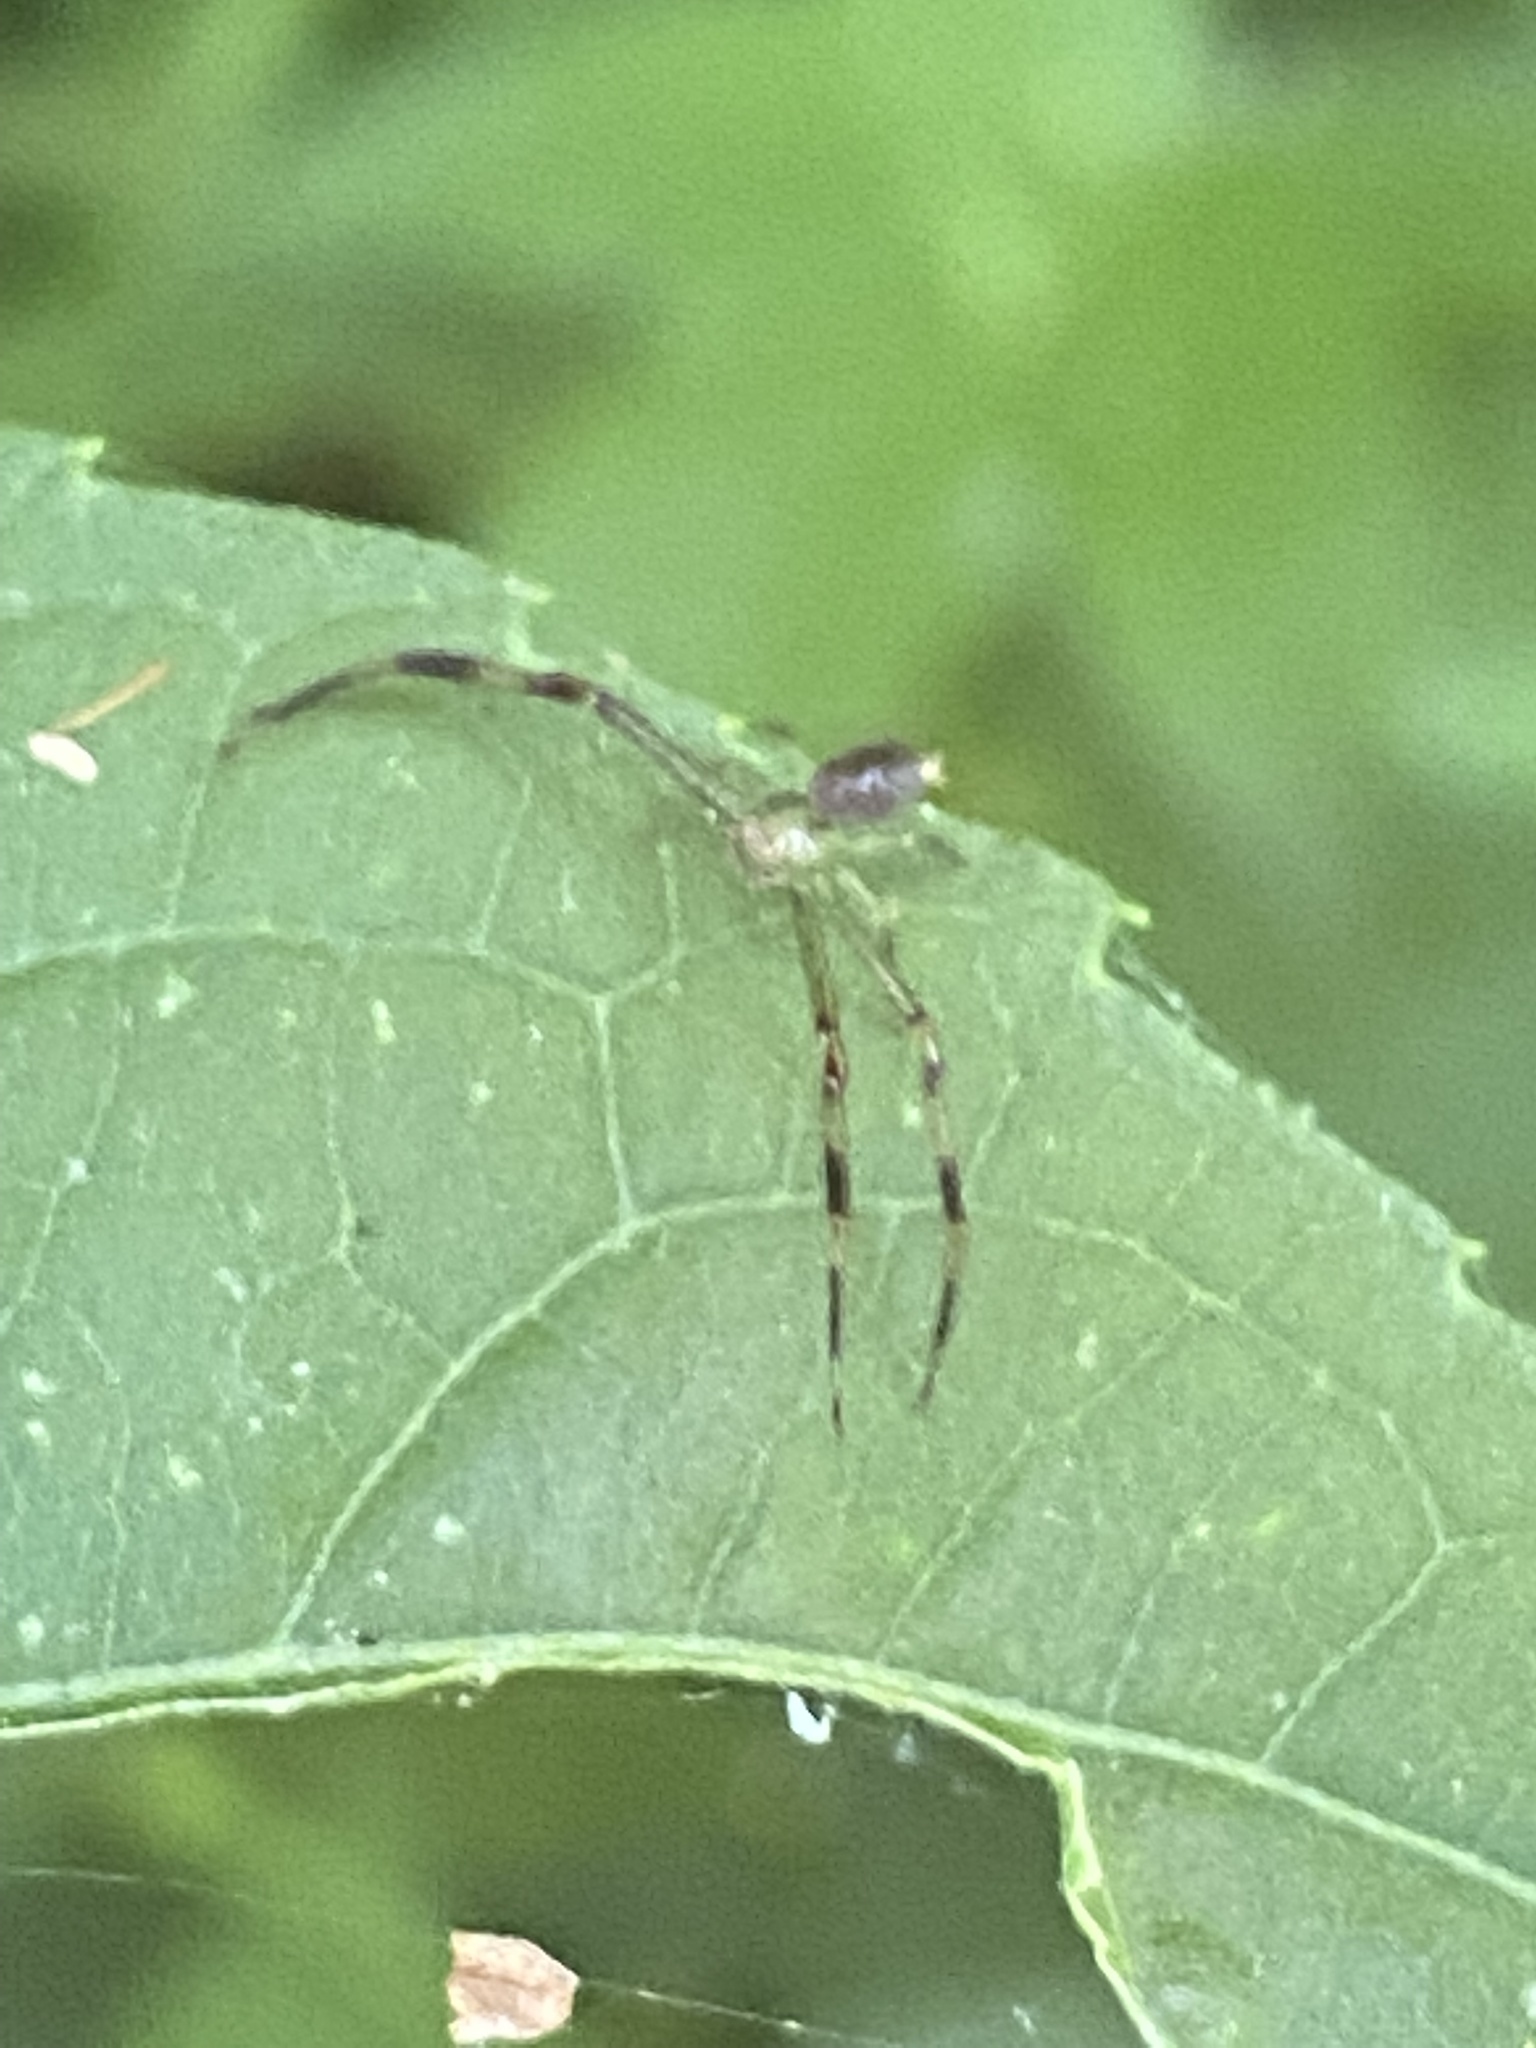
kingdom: Animalia
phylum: Arthropoda
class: Arachnida
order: Araneae
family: Thomisidae
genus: Misumessus
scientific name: Misumessus oblongus
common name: American green crab spider
